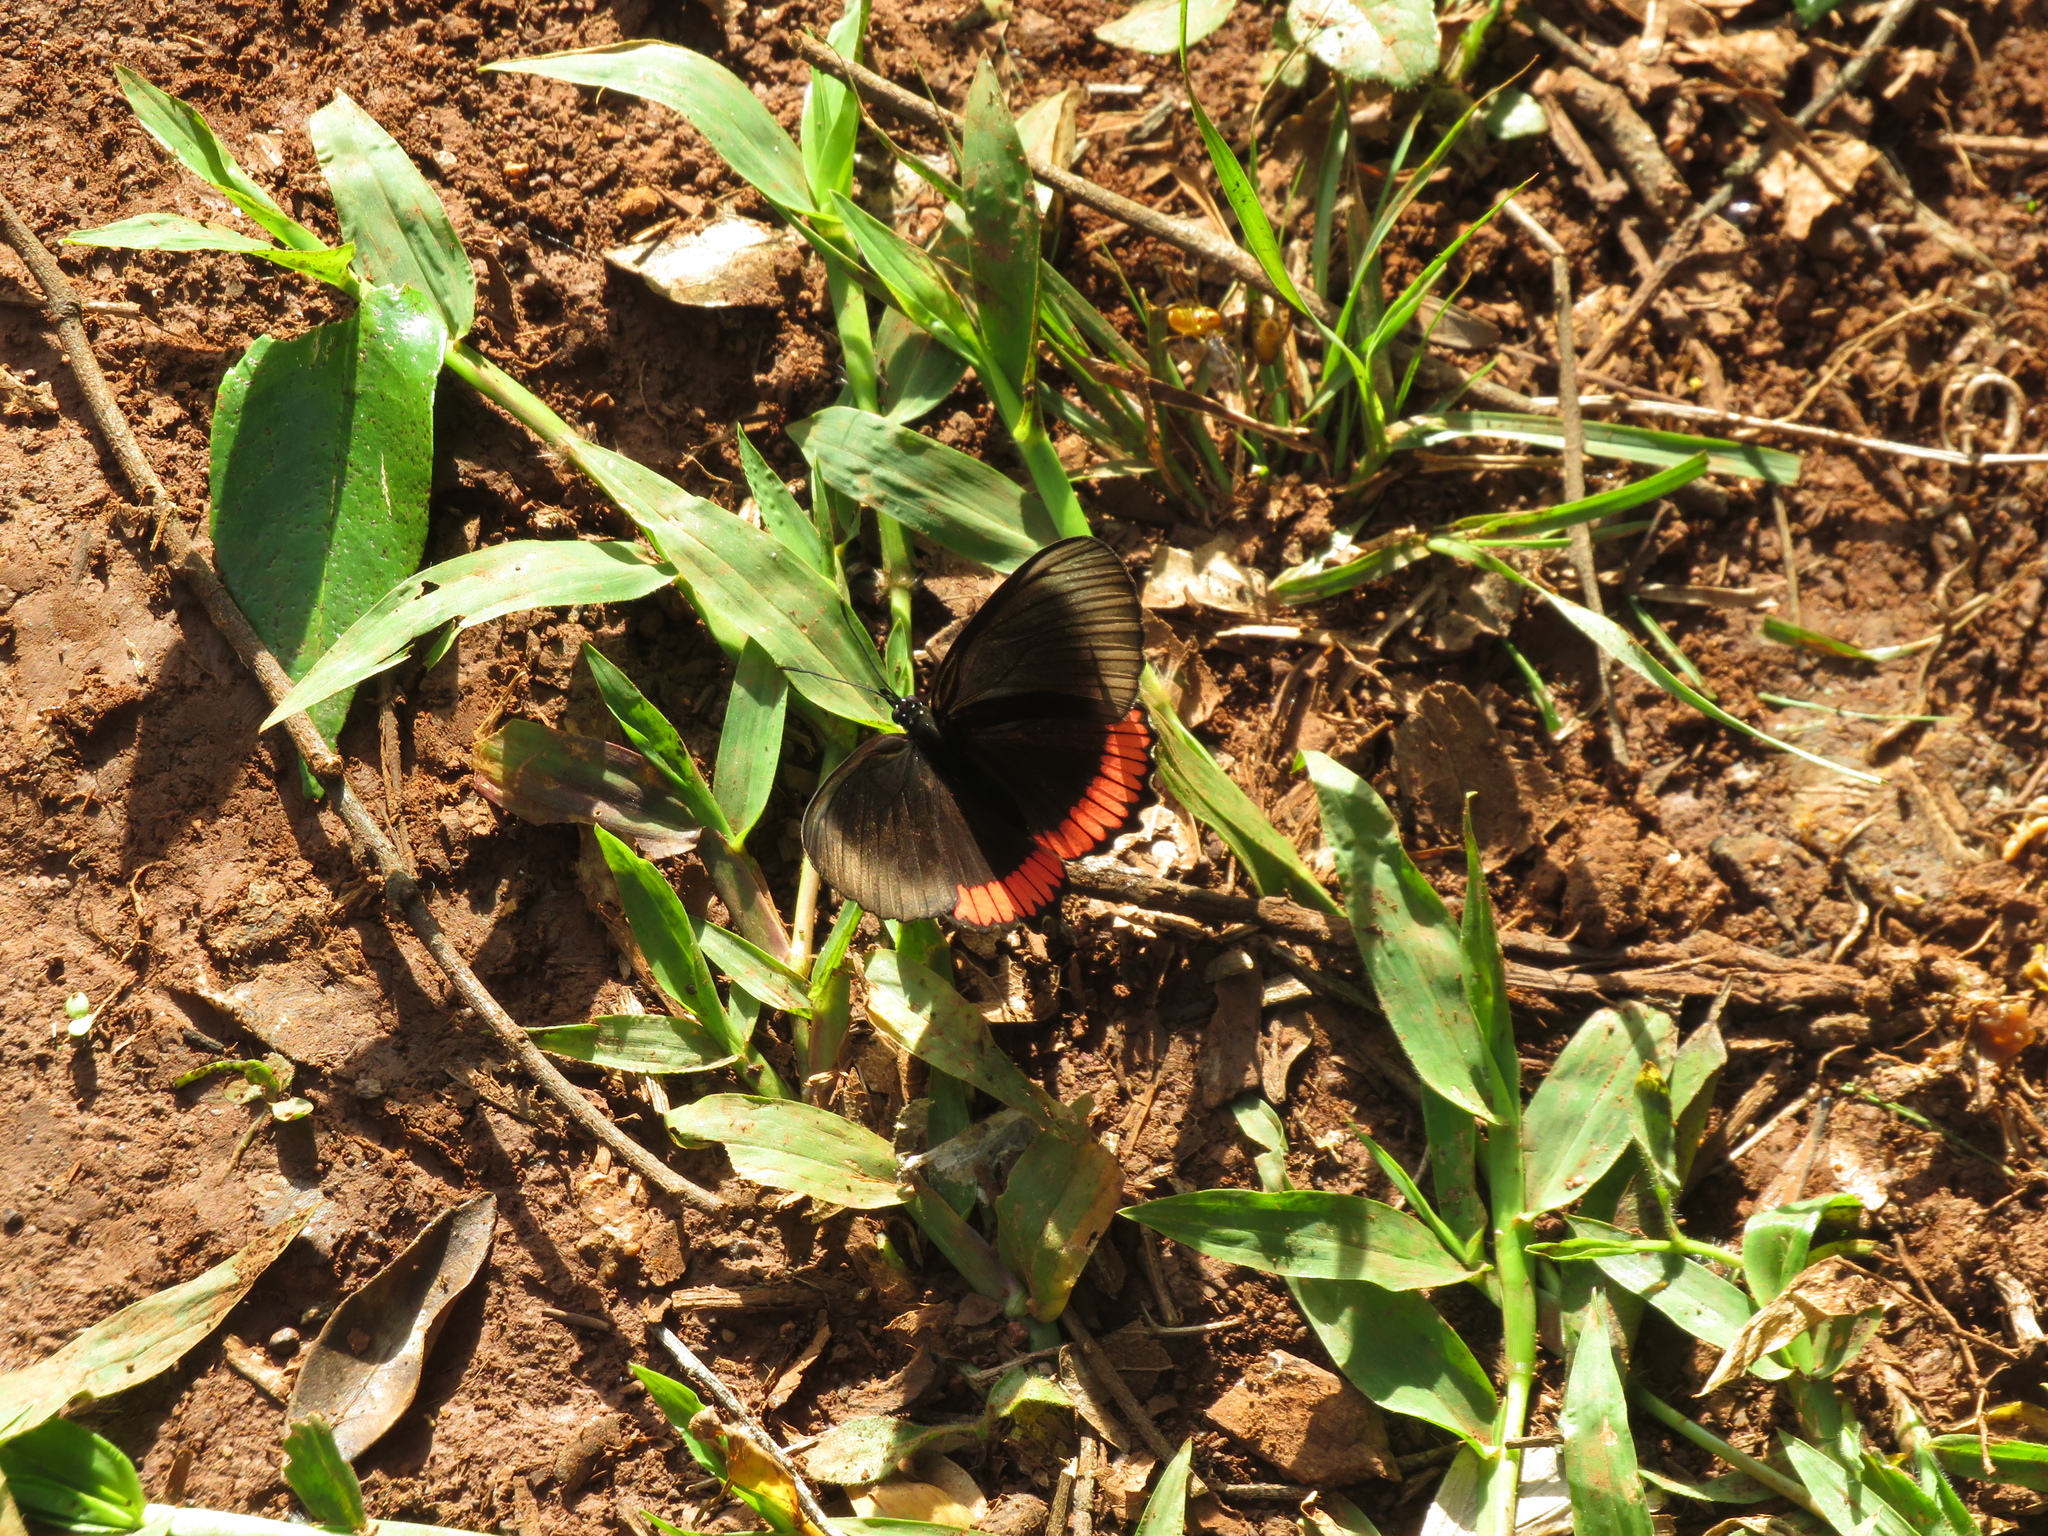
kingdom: Animalia
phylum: Arthropoda
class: Insecta
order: Lepidoptera
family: Sesiidae
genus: Sesia
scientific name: Sesia Biblis hyperia
